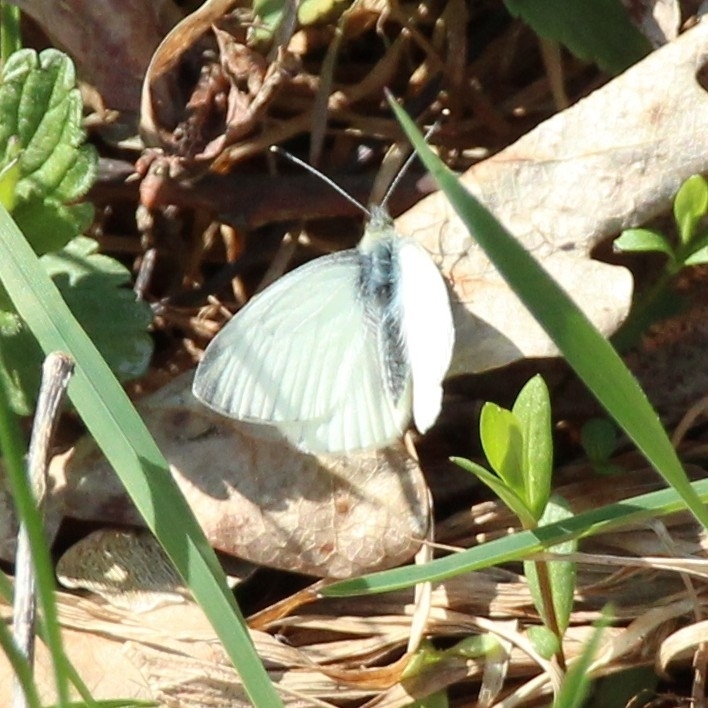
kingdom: Animalia
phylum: Arthropoda
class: Insecta
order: Lepidoptera
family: Pieridae
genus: Pieris
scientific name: Pieris napi
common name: Green-veined white
